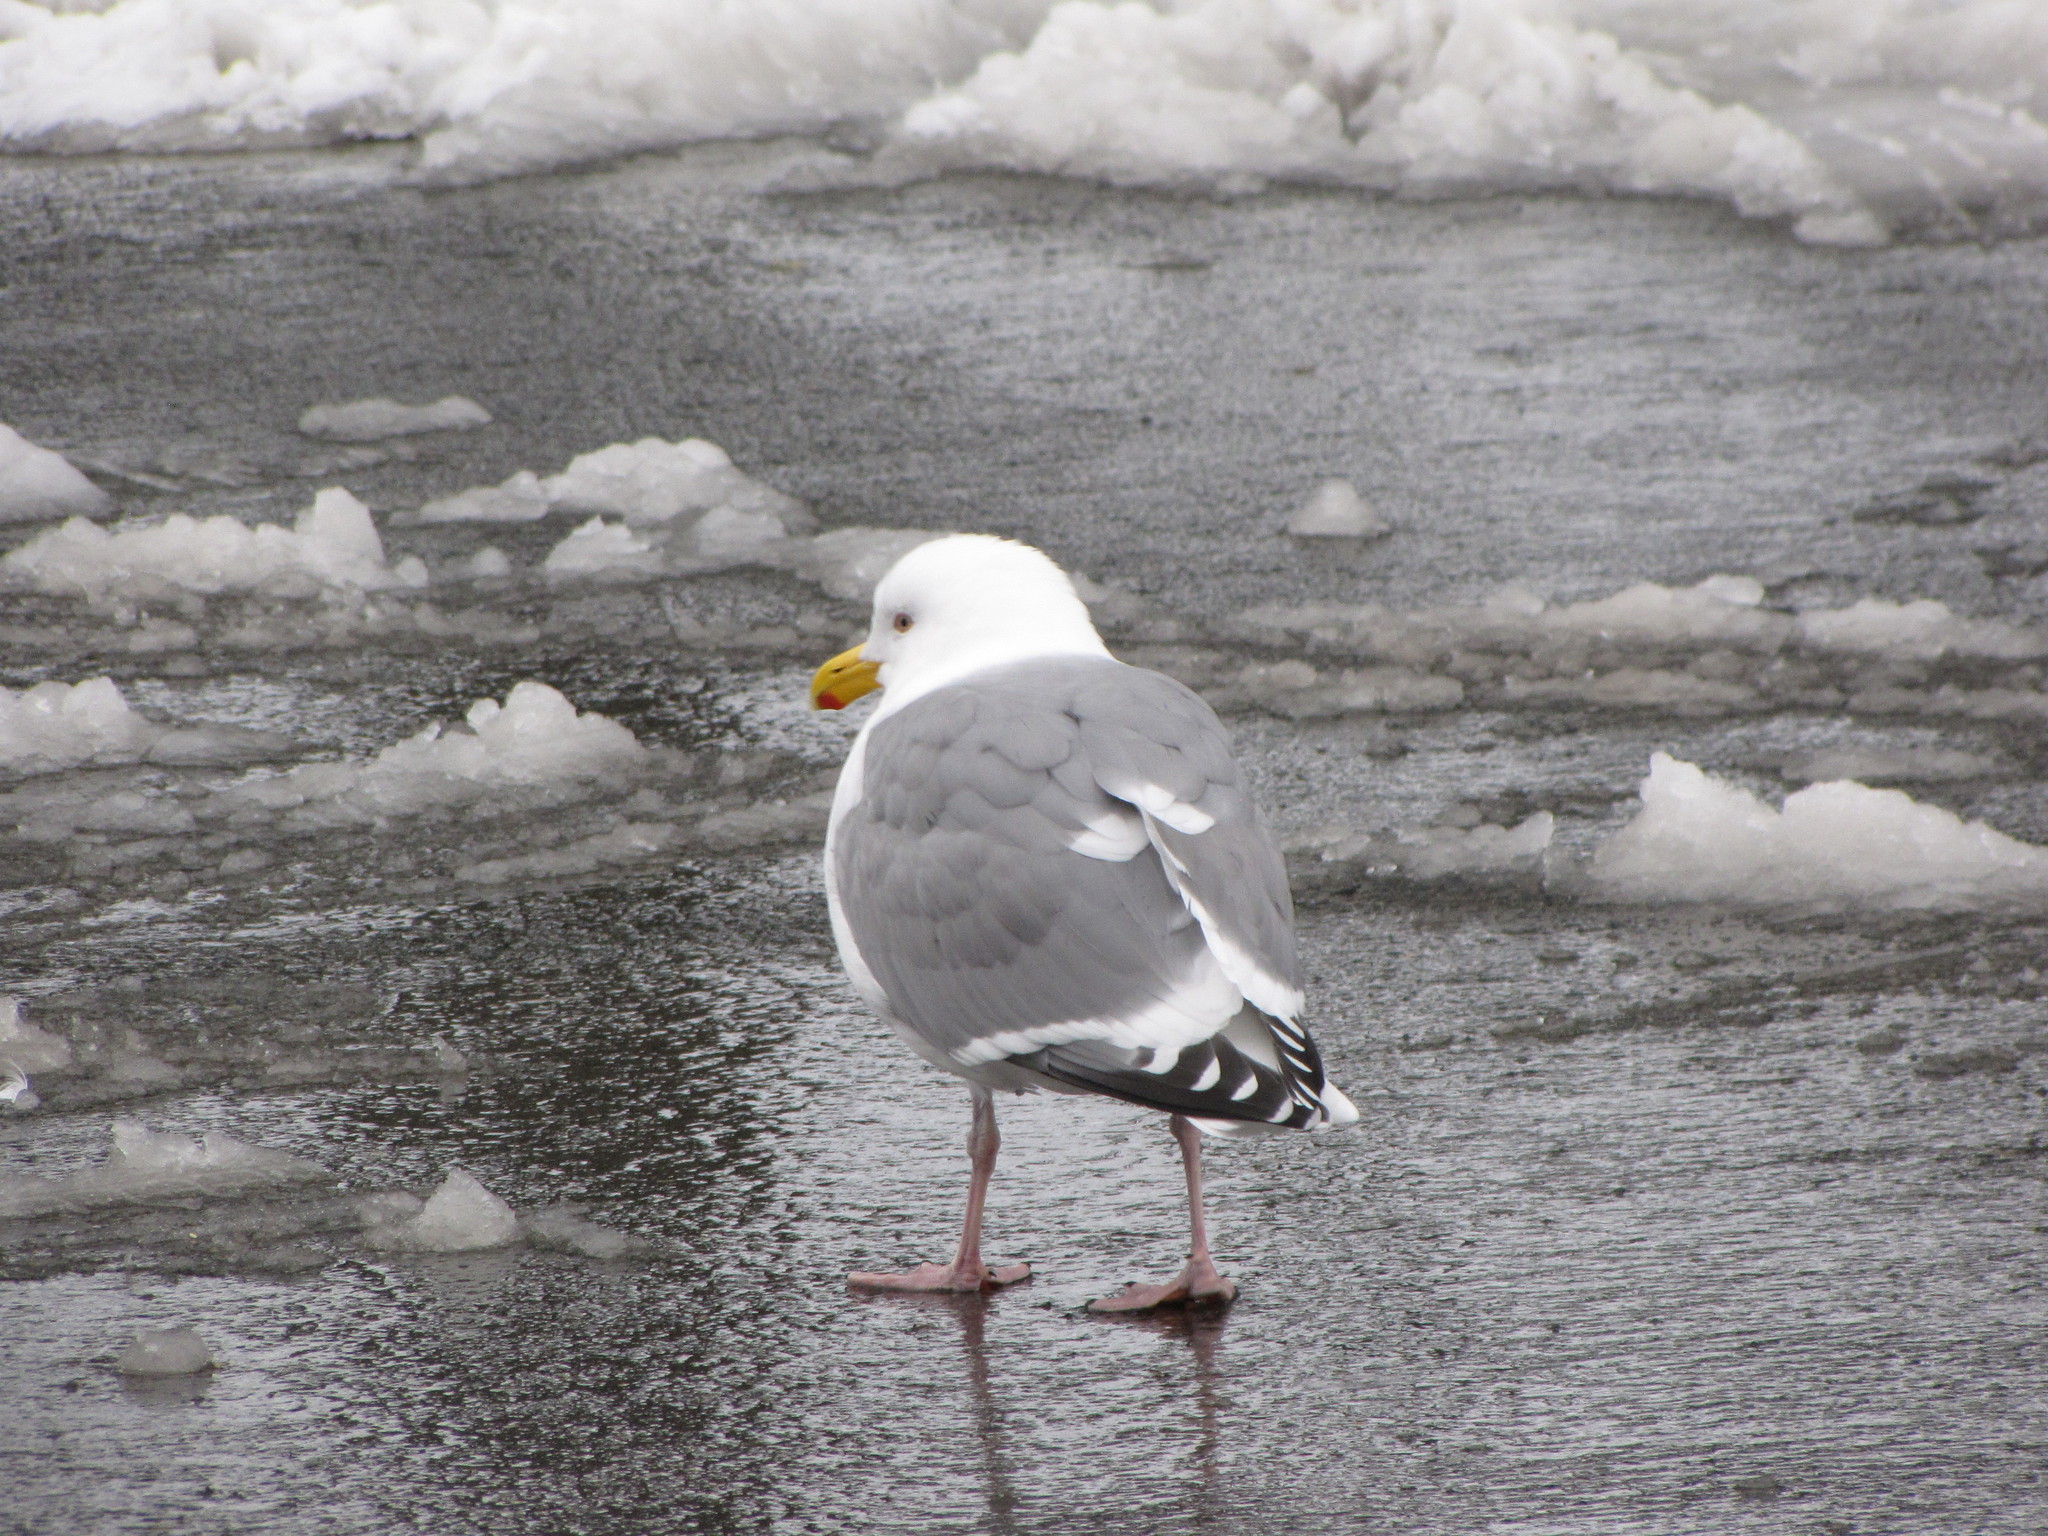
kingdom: Animalia
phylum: Chordata
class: Aves
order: Charadriiformes
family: Laridae
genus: Larus
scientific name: Larus
